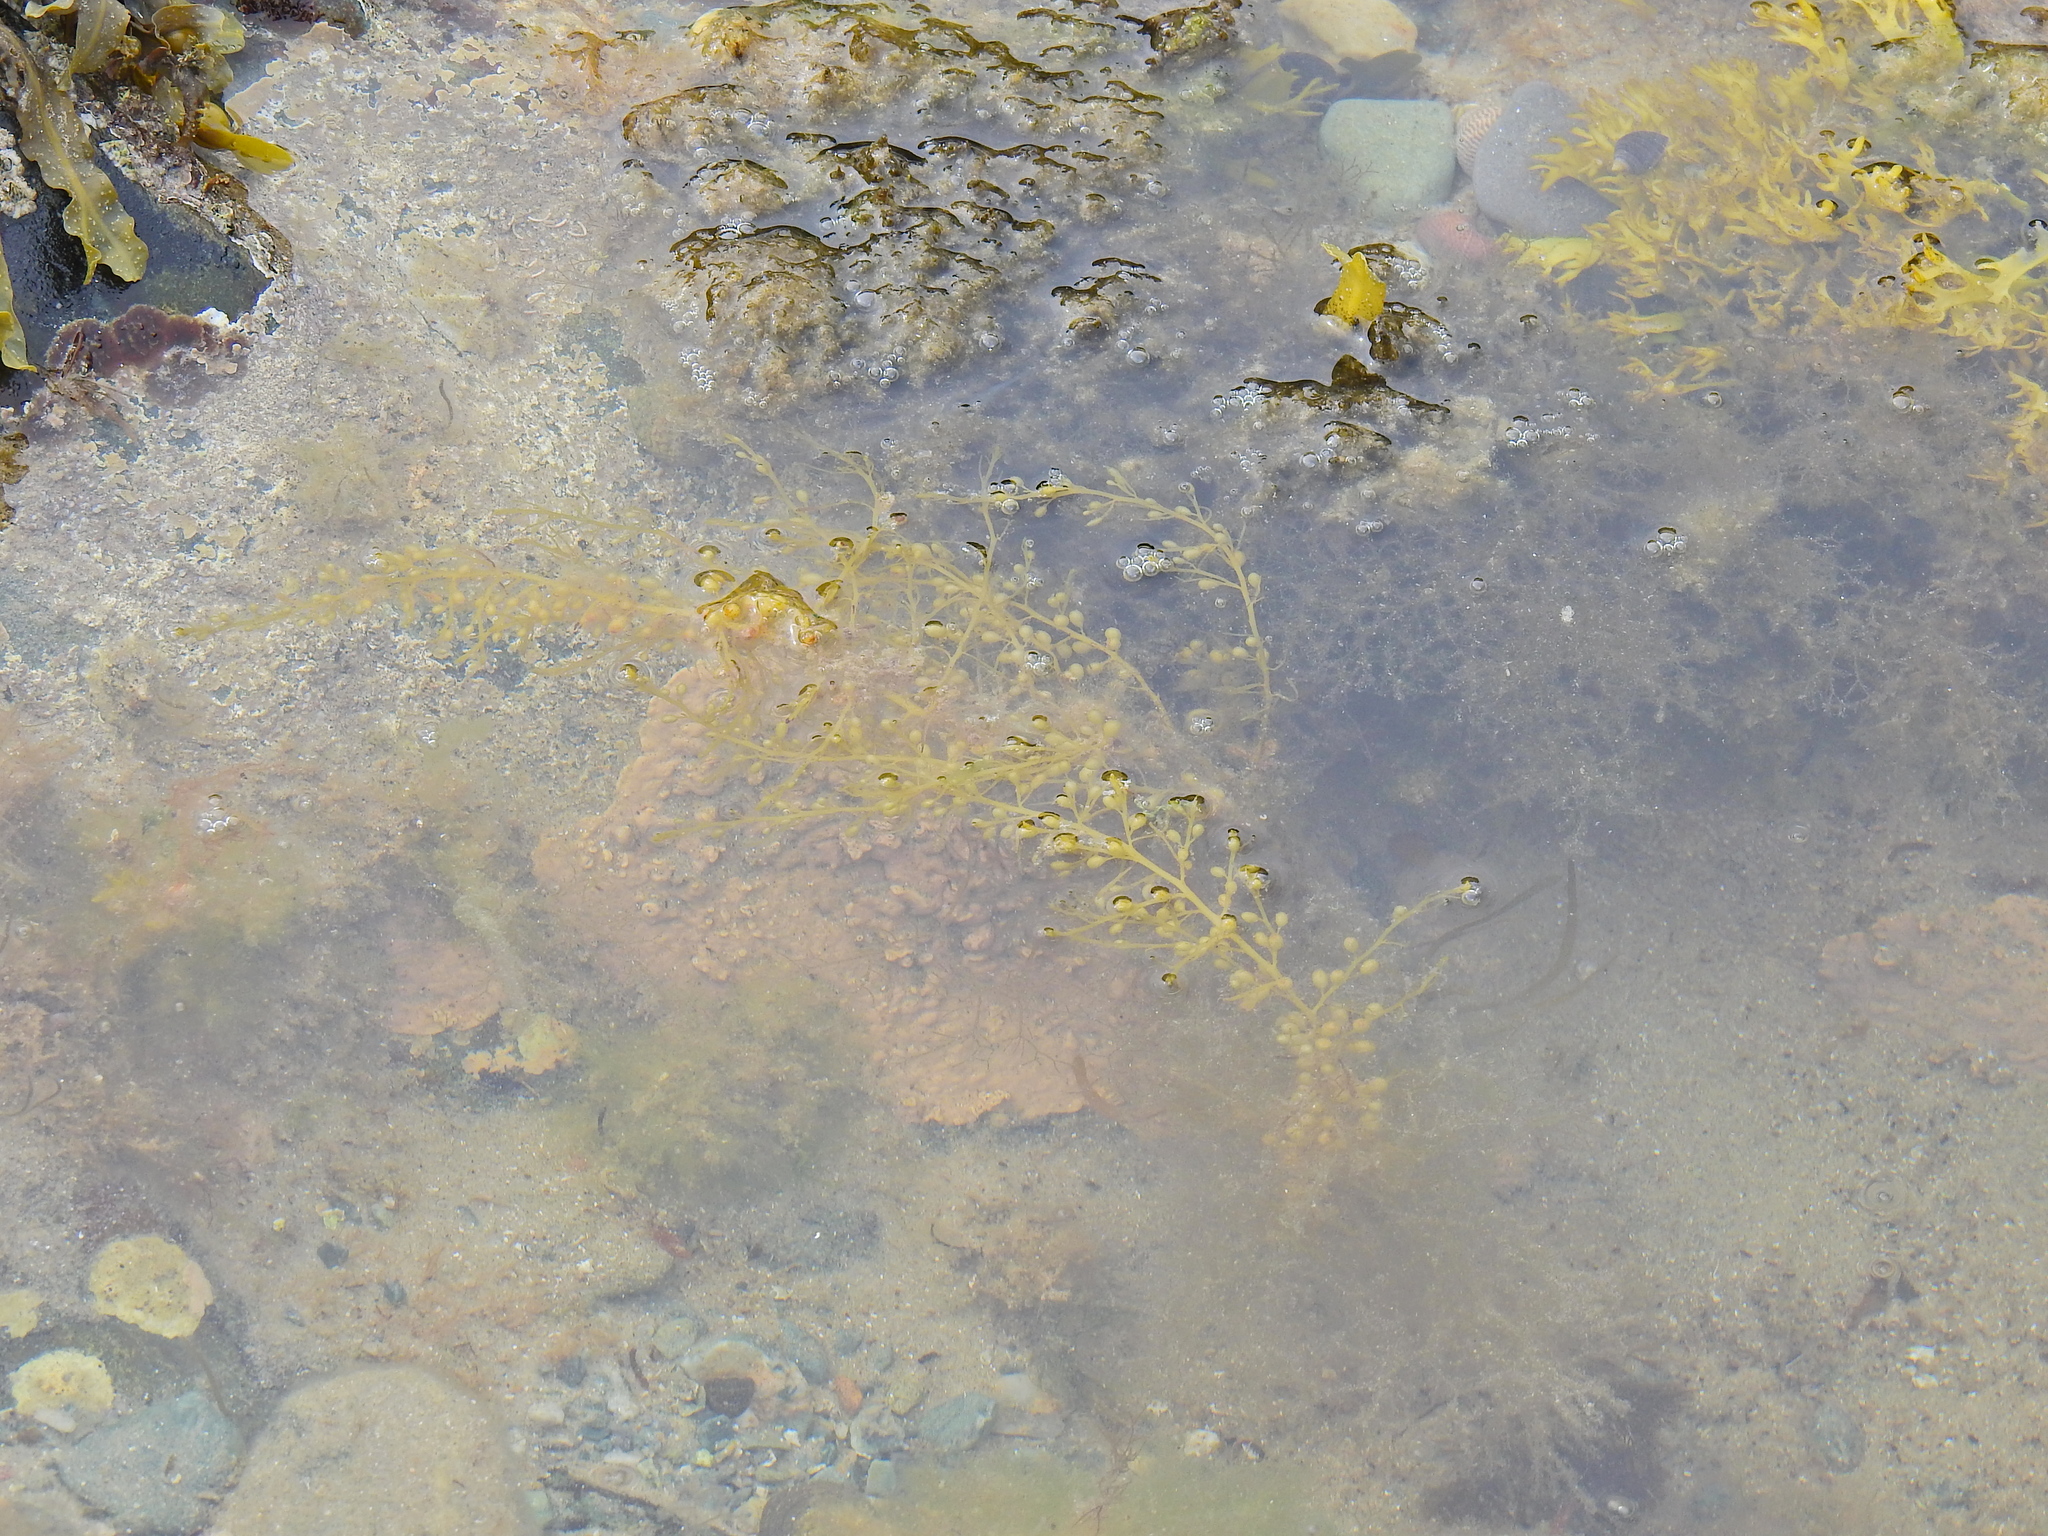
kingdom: Chromista
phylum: Ochrophyta
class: Phaeophyceae
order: Fucales
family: Sargassaceae
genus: Sargassum
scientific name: Sargassum muticum
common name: Japweed
